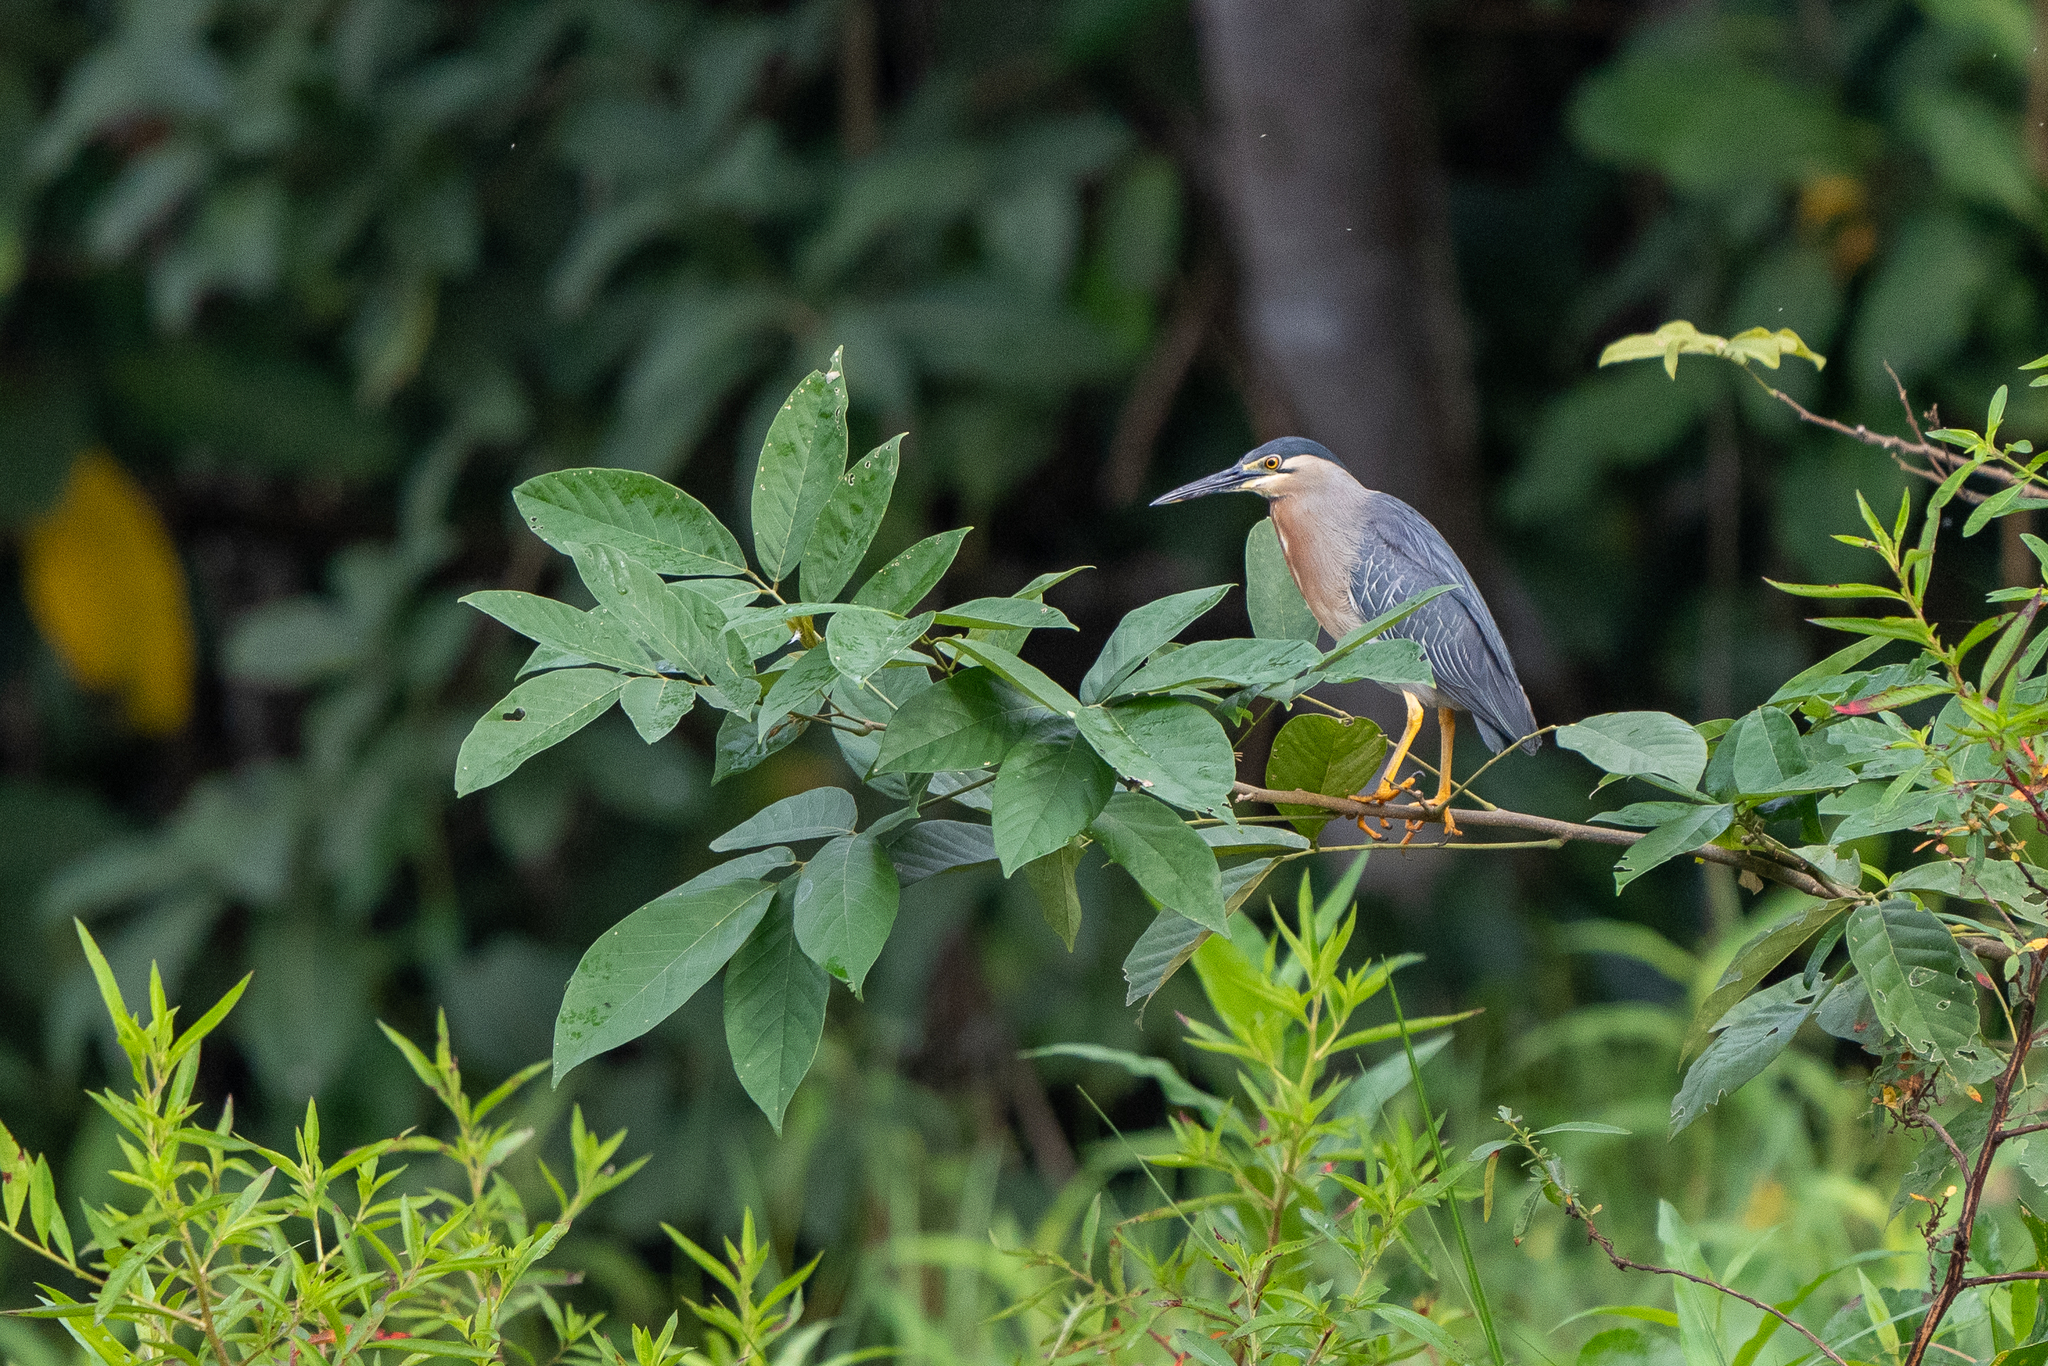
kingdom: Animalia
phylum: Chordata
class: Aves
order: Pelecaniformes
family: Ardeidae
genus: Butorides
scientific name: Butorides striata
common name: Striated heron
